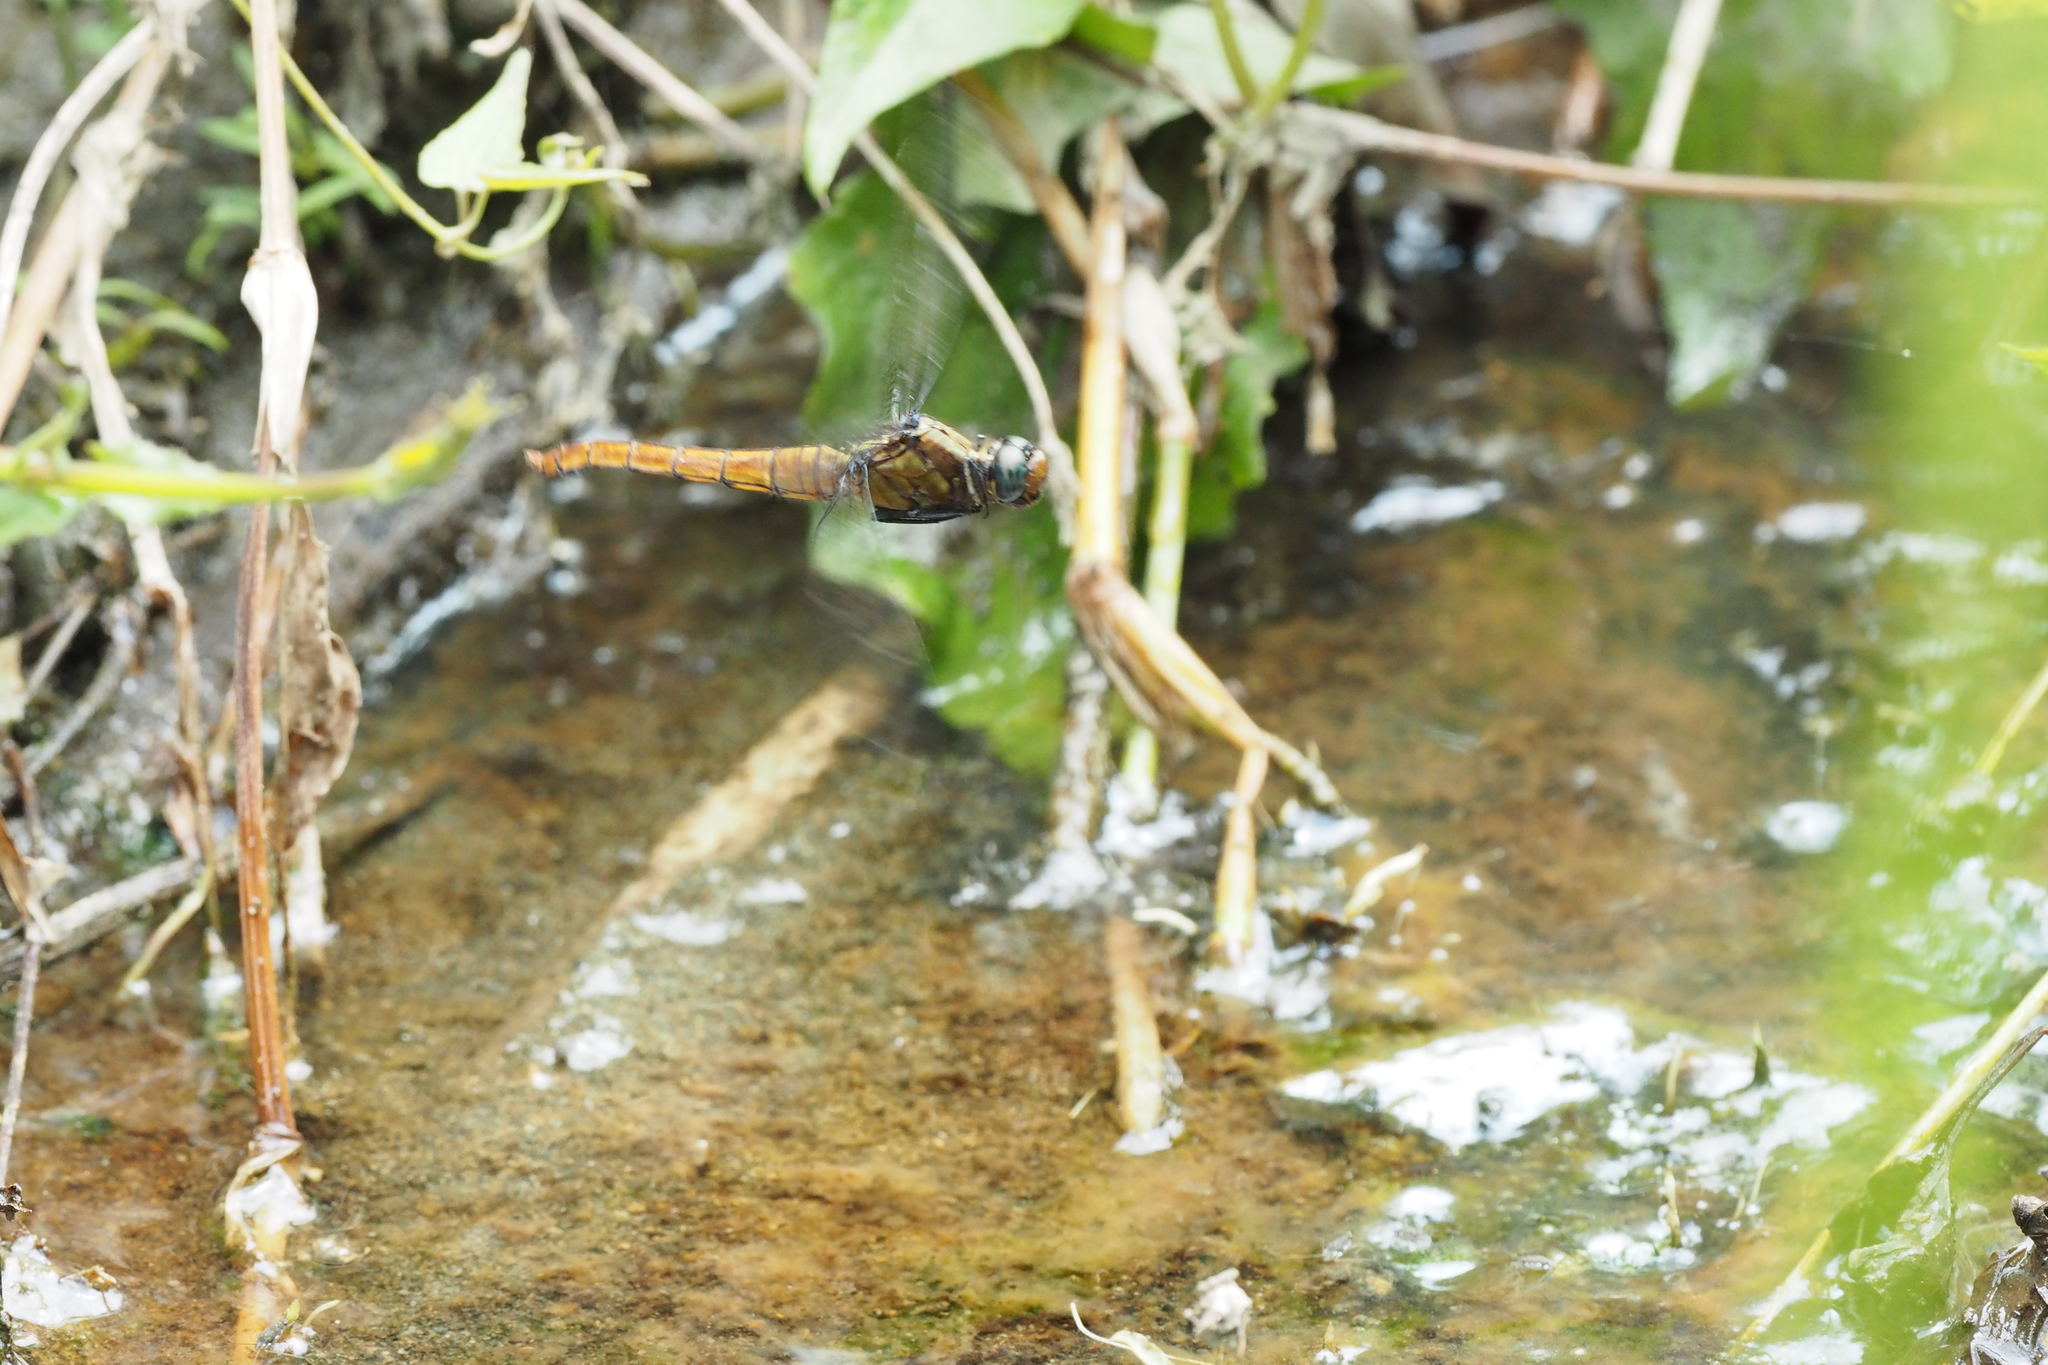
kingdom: Animalia
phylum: Arthropoda
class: Insecta
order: Odonata
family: Libellulidae
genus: Orthetrum
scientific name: Orthetrum pruinosum
